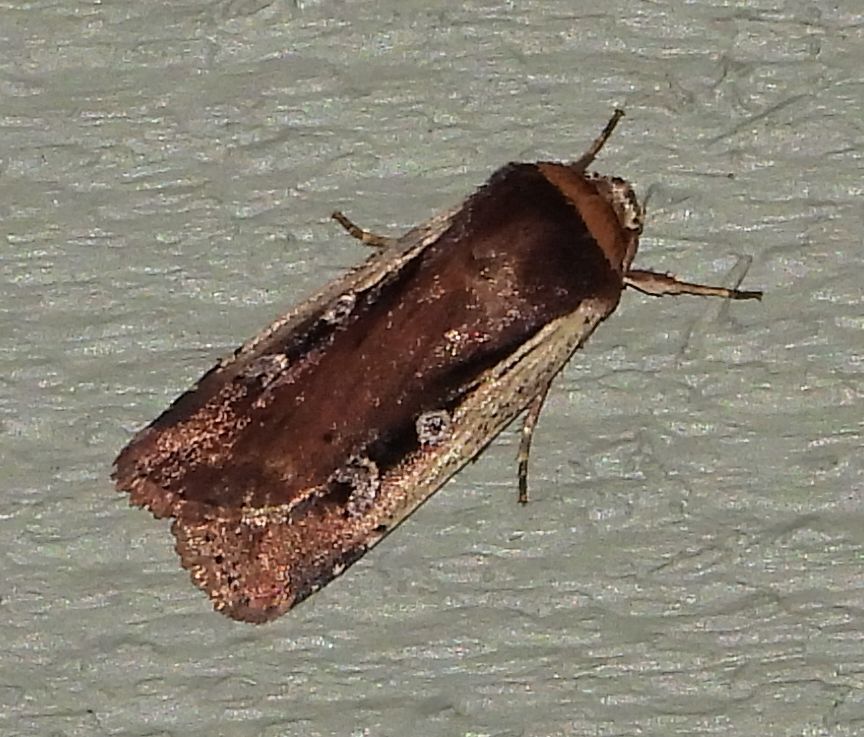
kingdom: Animalia
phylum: Arthropoda
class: Insecta
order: Lepidoptera
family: Noctuidae
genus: Ochropleura
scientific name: Ochropleura implecta
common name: Flame-shouldered dart
